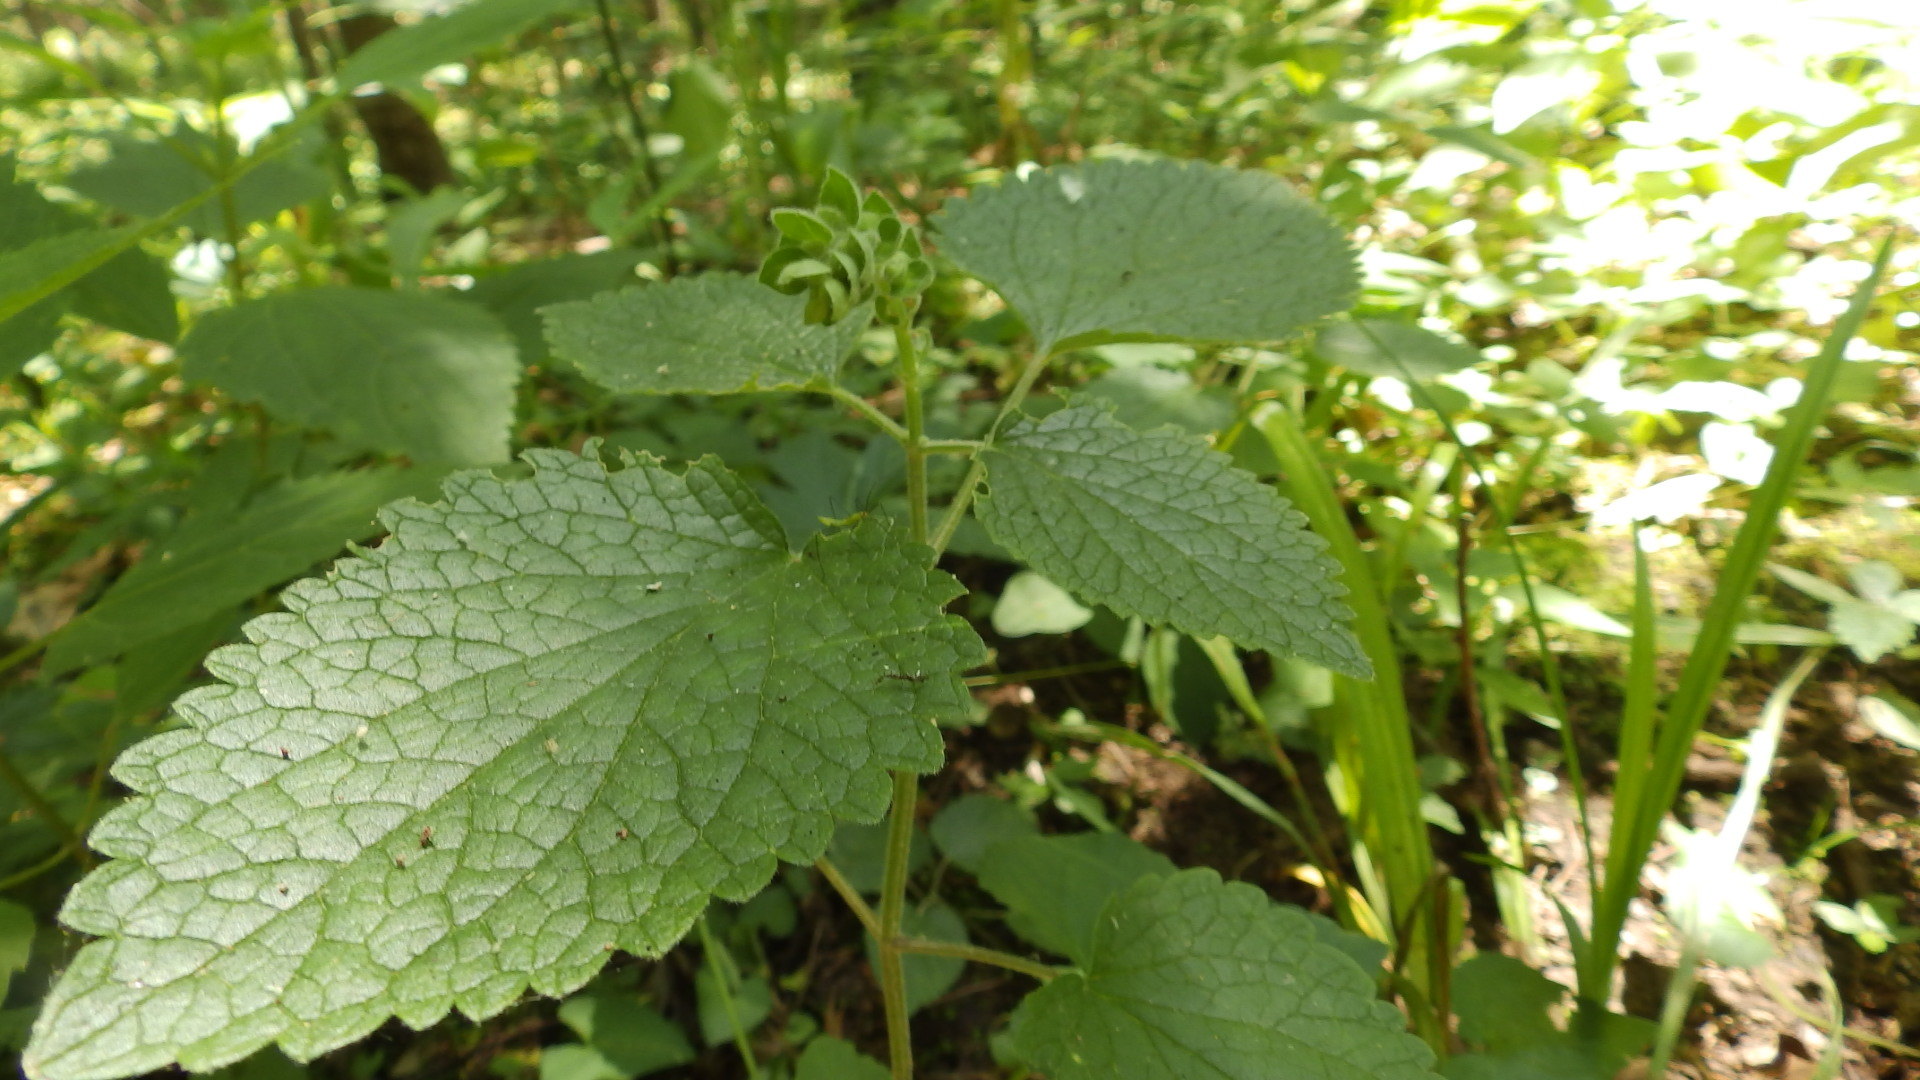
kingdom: Plantae
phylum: Tracheophyta
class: Magnoliopsida
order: Lamiales
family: Lamiaceae
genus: Scutellaria
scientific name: Scutellaria ovata
